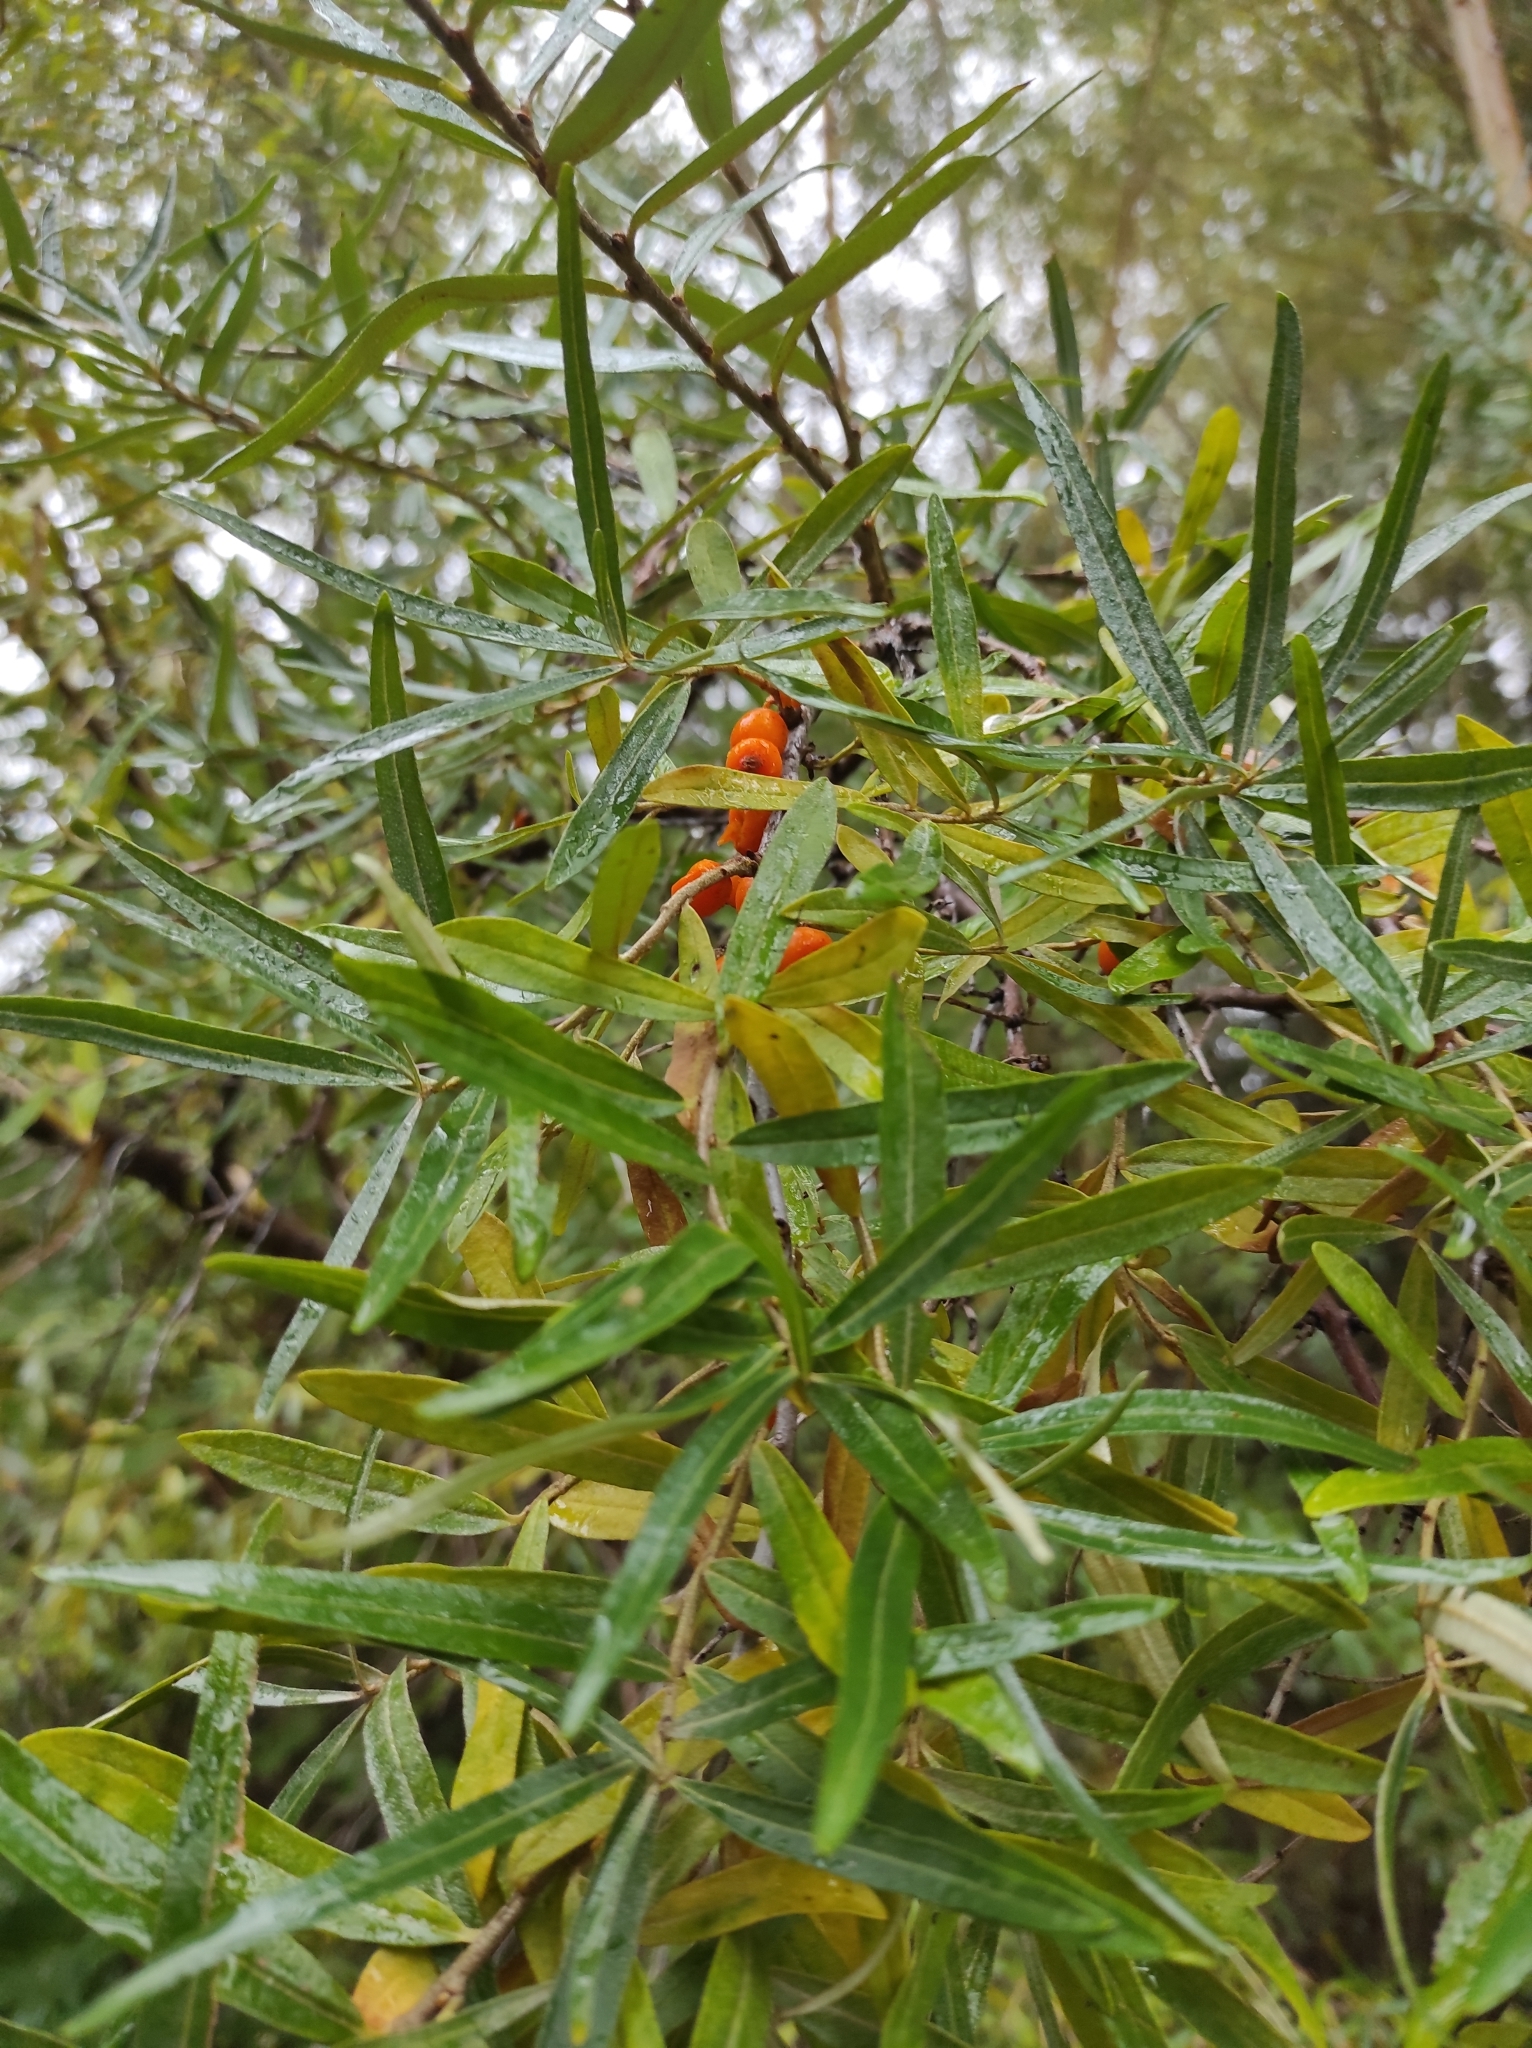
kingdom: Plantae
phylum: Tracheophyta
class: Magnoliopsida
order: Rosales
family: Elaeagnaceae
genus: Hippophae
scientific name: Hippophae rhamnoides
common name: Sea-buckthorn
